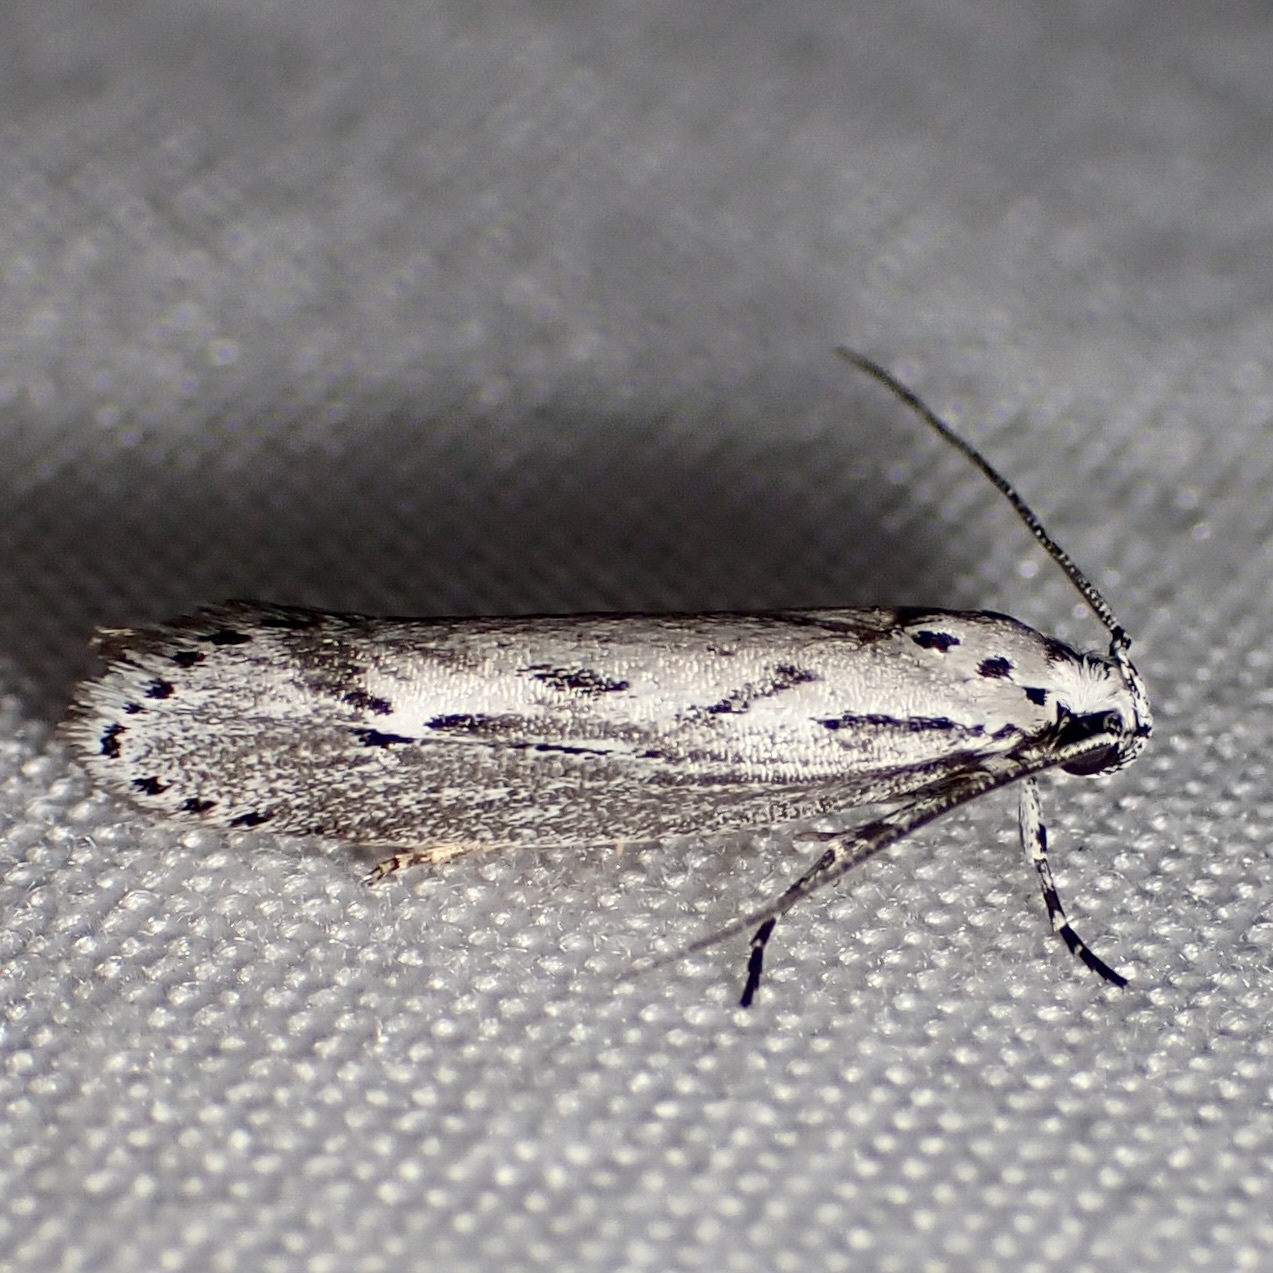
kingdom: Animalia
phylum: Arthropoda
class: Insecta
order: Lepidoptera
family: Ethmiidae
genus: Ethmia
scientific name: Ethmia semitenebrella
